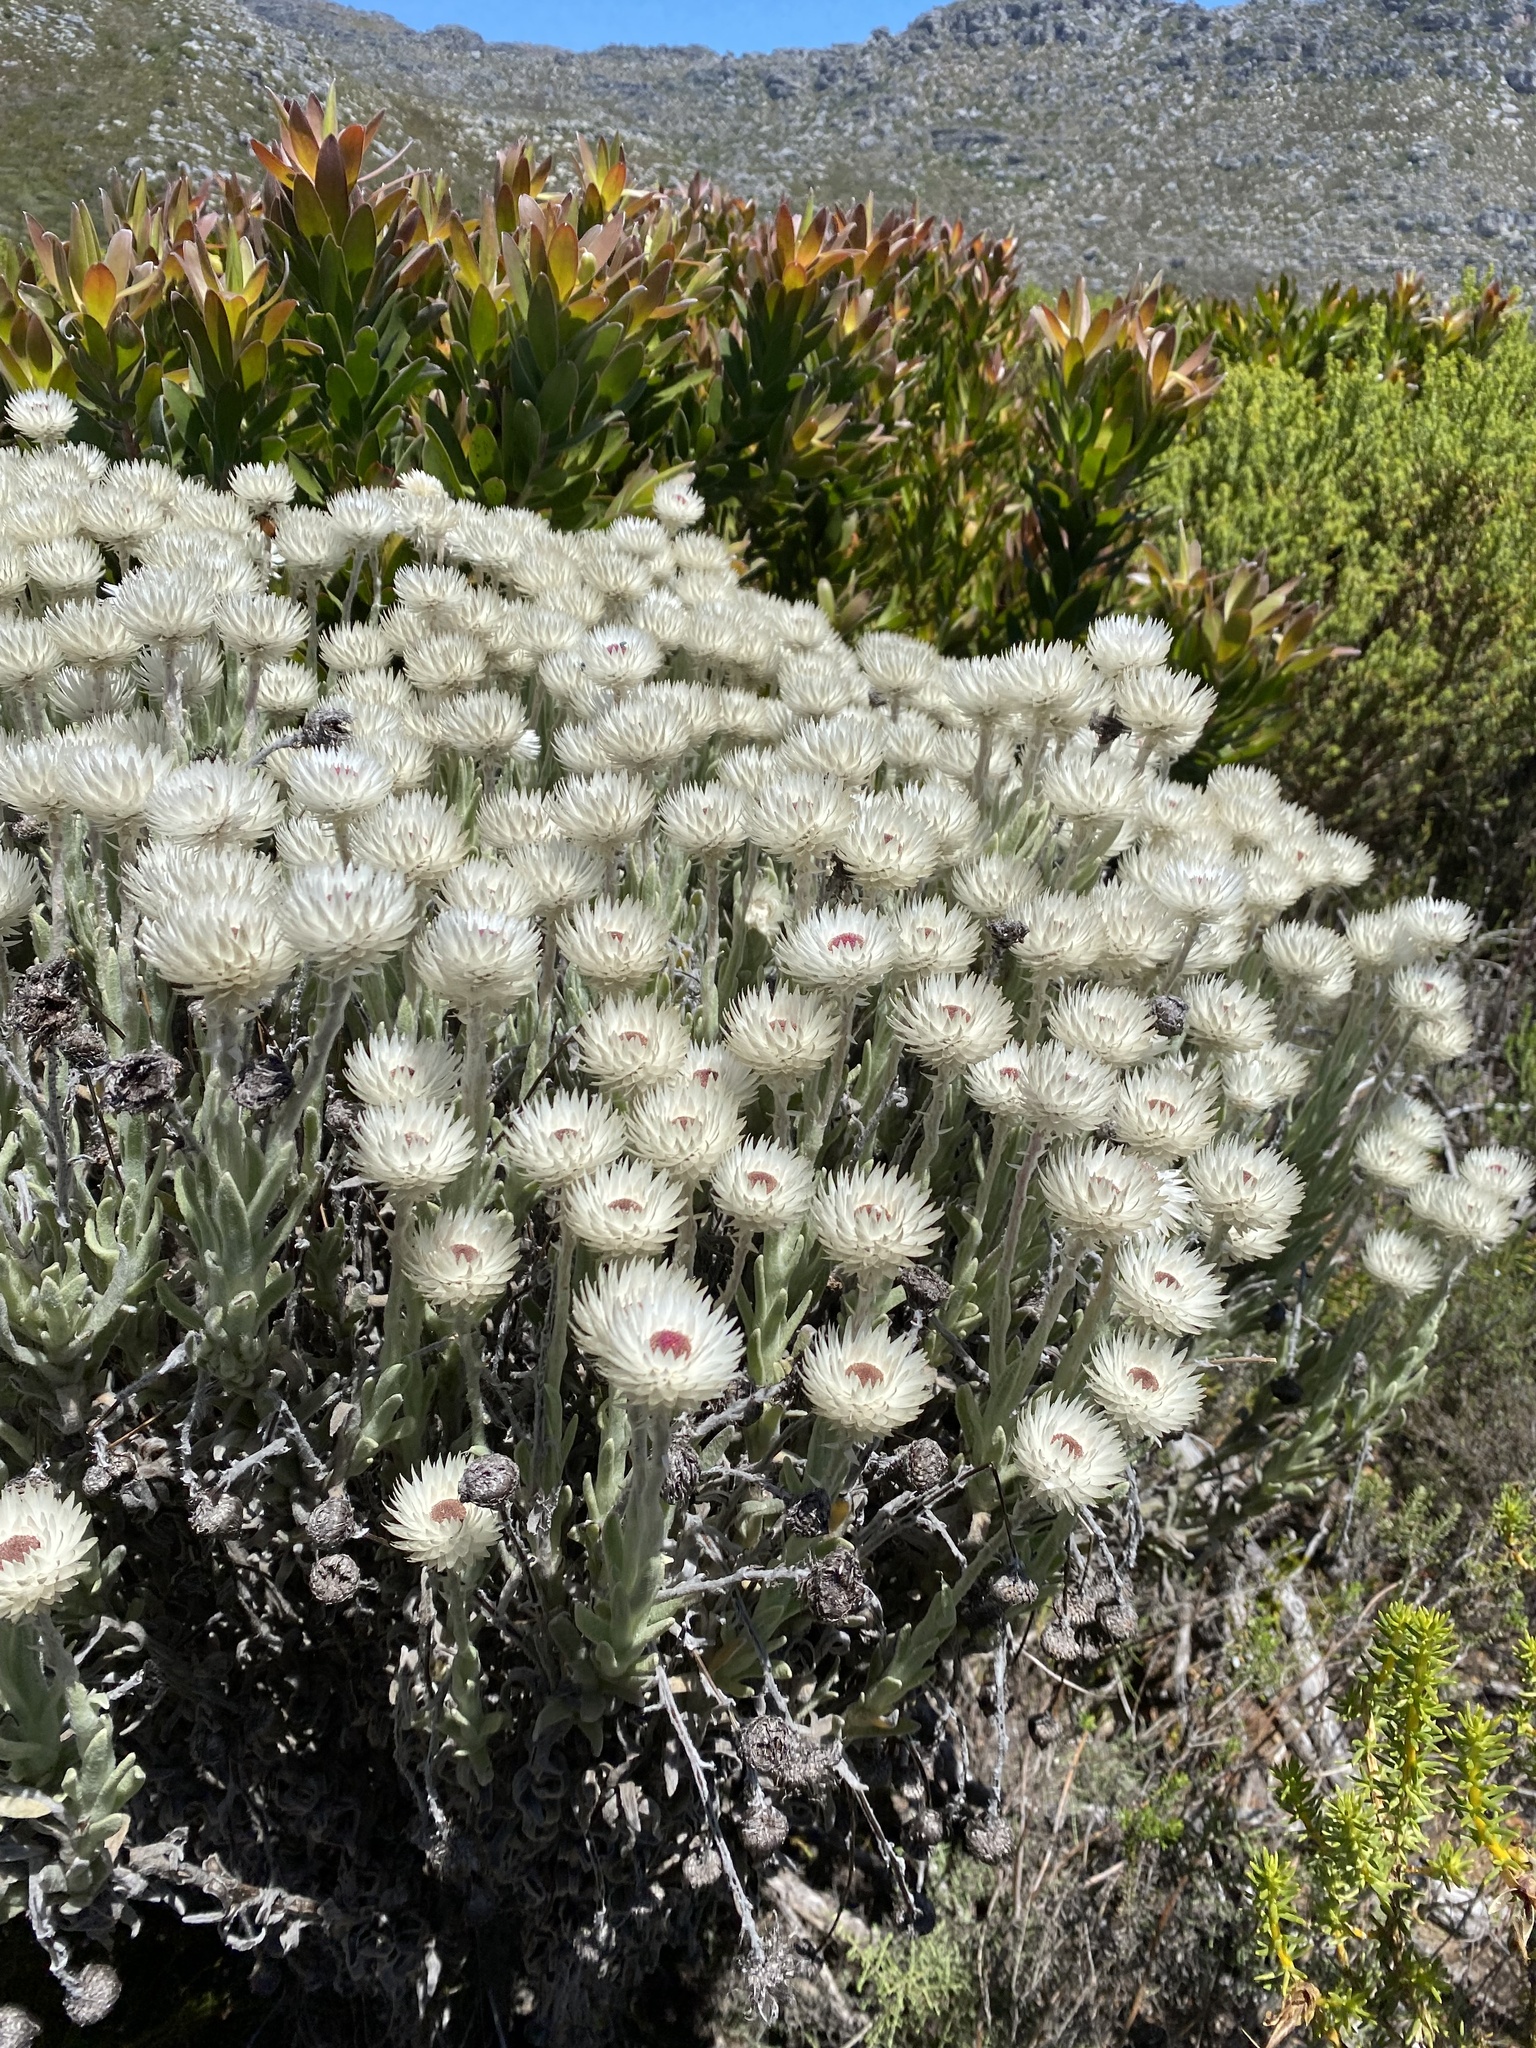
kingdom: Plantae
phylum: Tracheophyta
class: Magnoliopsida
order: Asterales
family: Asteraceae
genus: Syncarpha
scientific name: Syncarpha vestita
